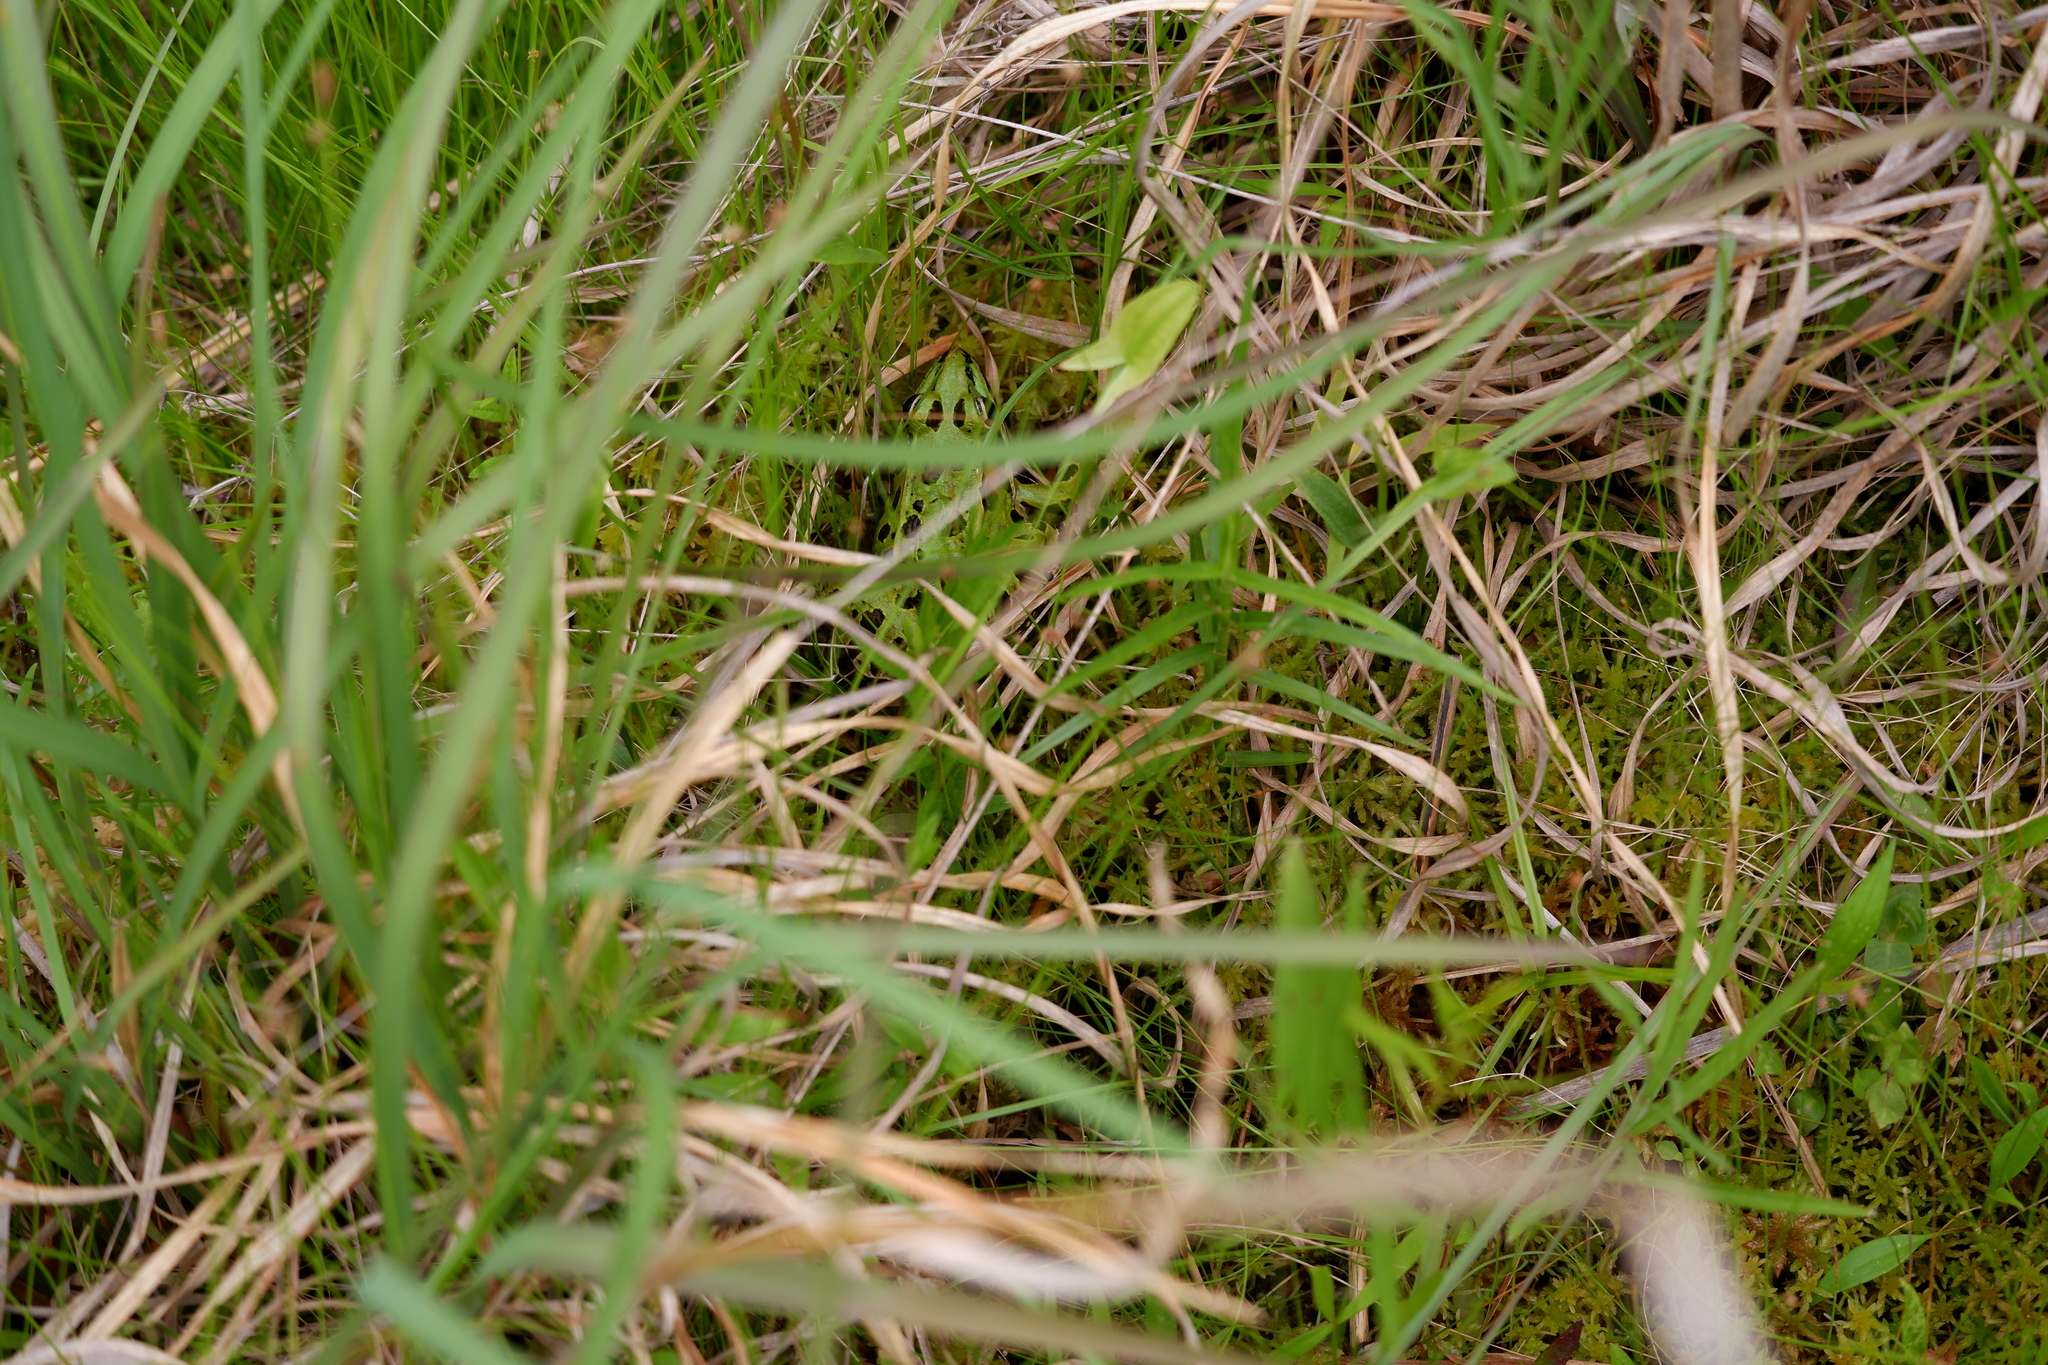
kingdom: Animalia
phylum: Chordata
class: Amphibia
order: Anura
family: Ranidae
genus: Lithobates
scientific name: Lithobates sphenocephalus
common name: Southern leopard frog
